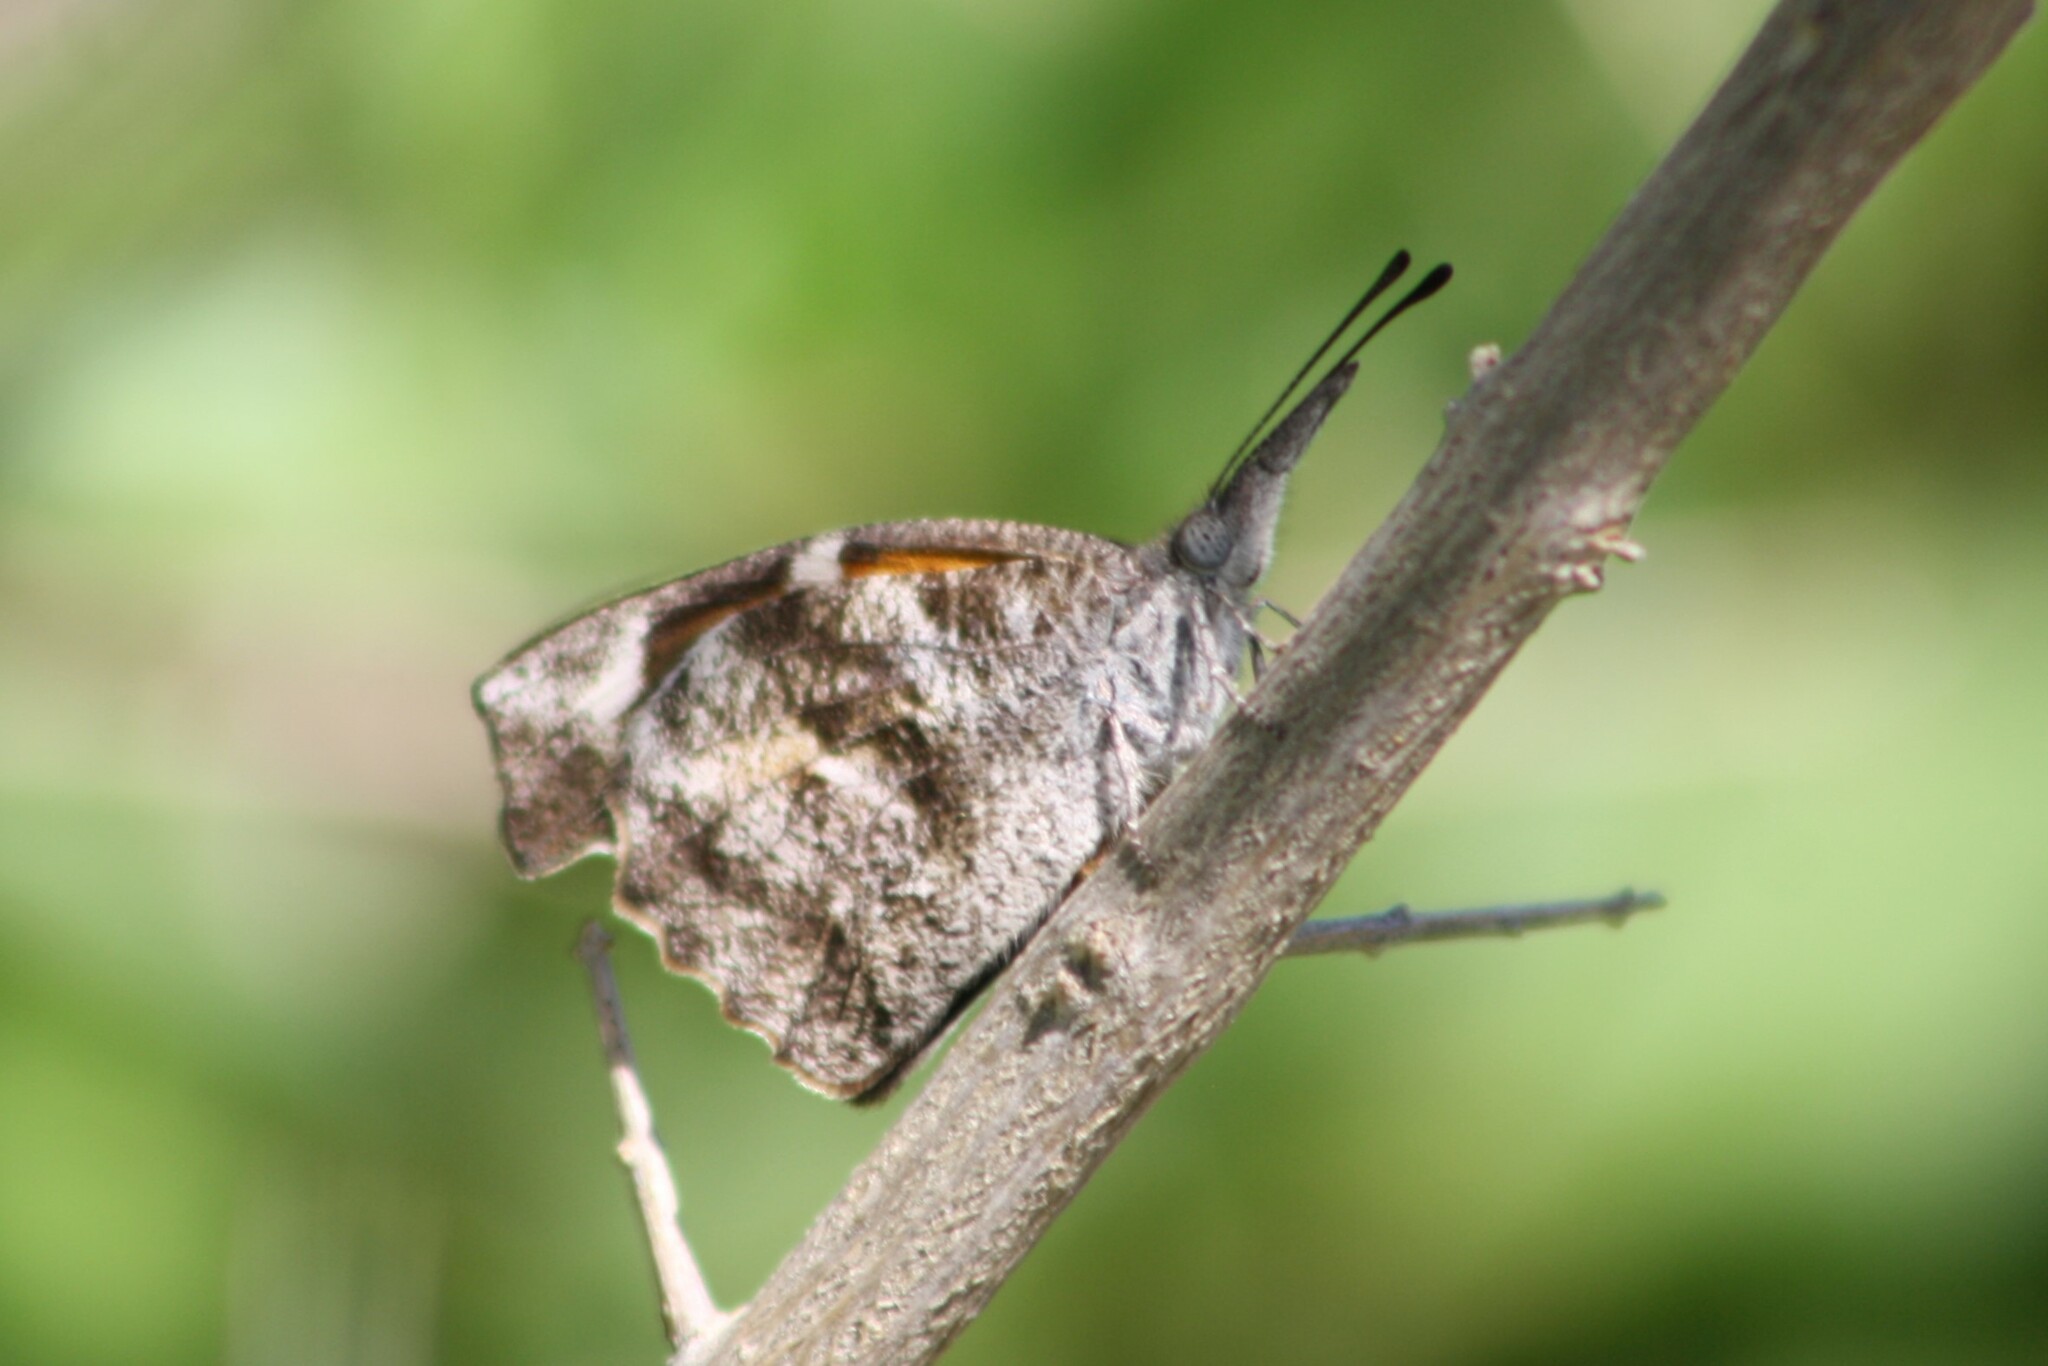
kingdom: Animalia
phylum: Arthropoda
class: Insecta
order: Lepidoptera
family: Nymphalidae
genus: Libytheana
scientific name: Libytheana carinenta
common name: American snout
